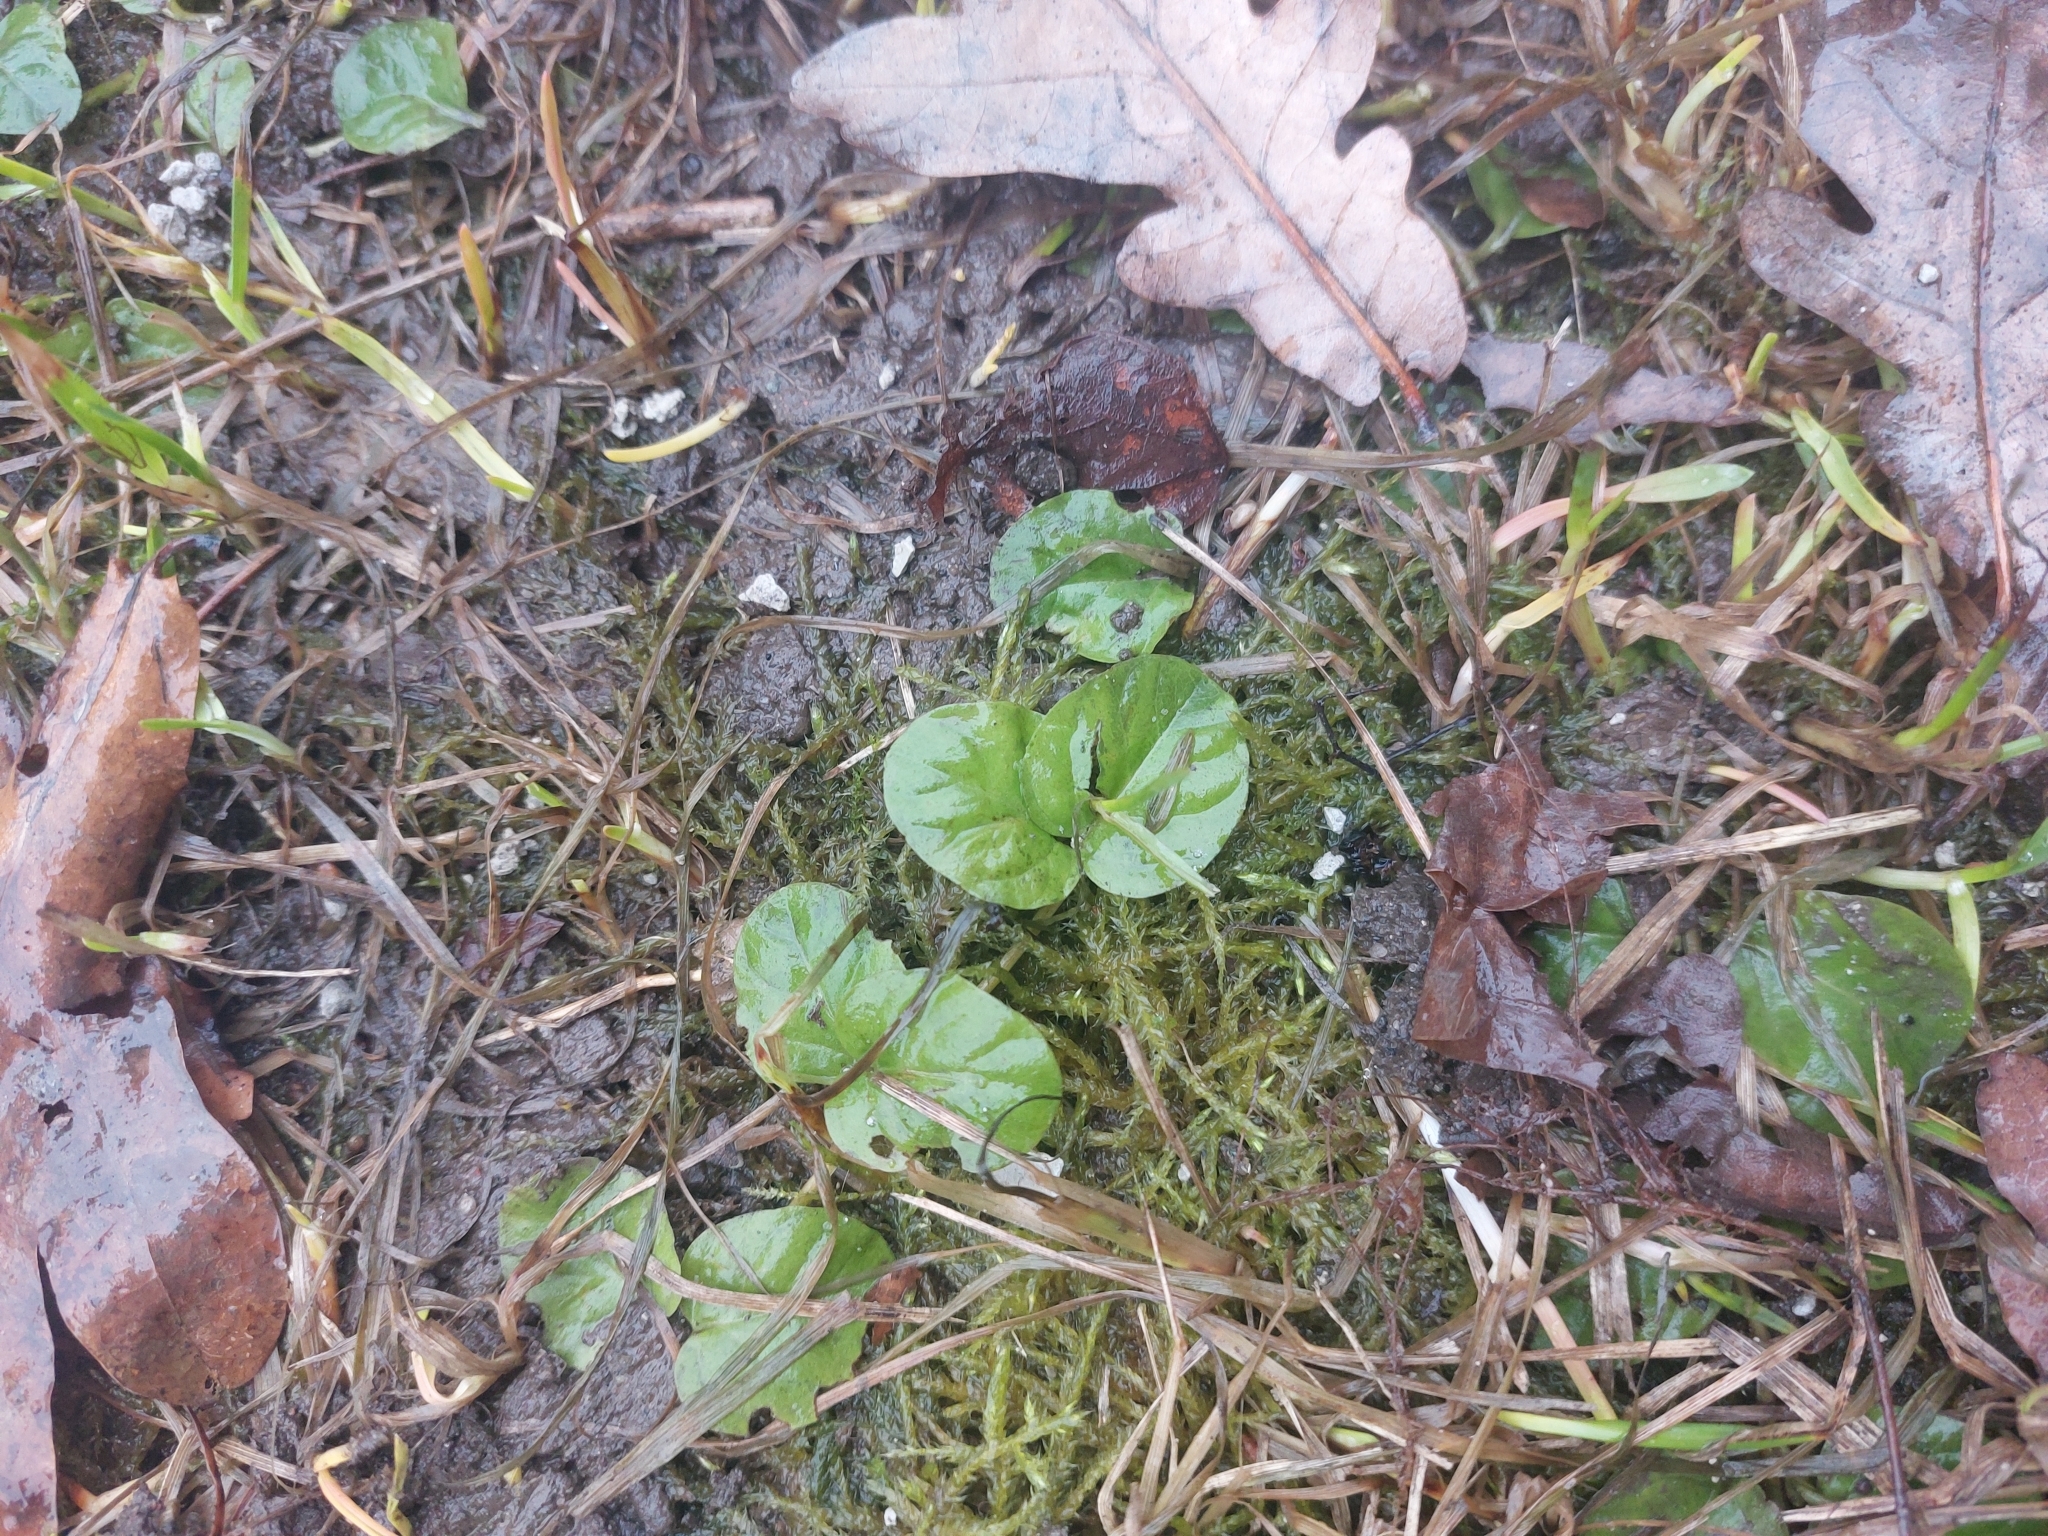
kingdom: Plantae
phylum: Tracheophyta
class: Magnoliopsida
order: Ericales
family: Primulaceae
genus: Lysimachia
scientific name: Lysimachia nummularia
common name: Moneywort
